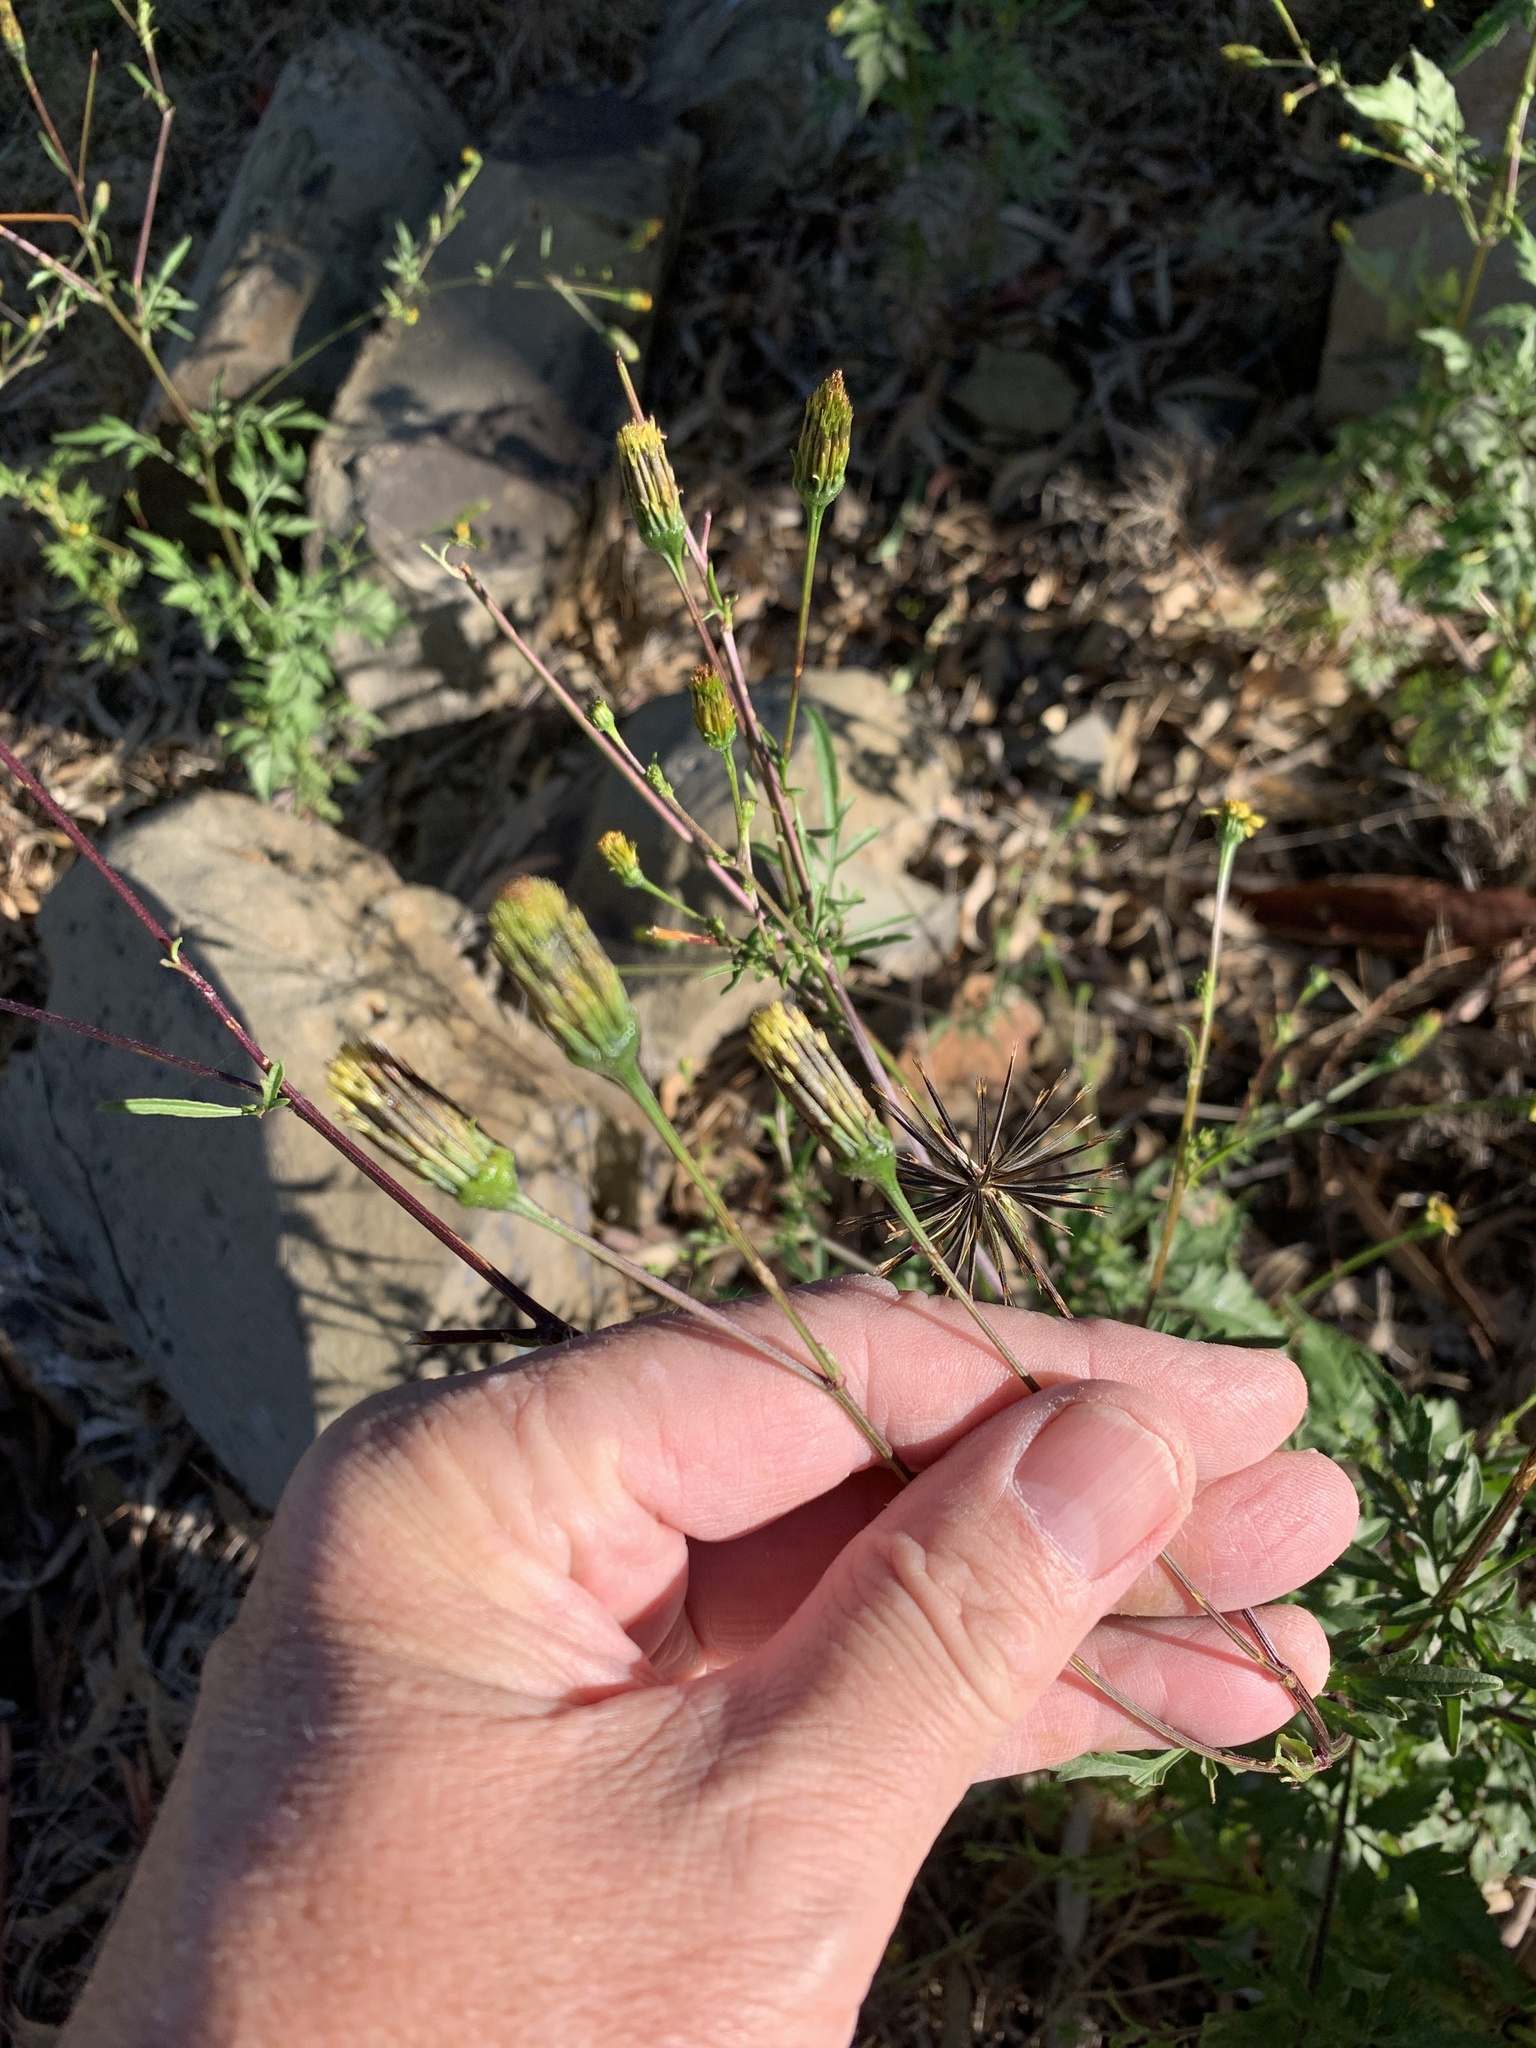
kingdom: Plantae
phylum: Tracheophyta
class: Magnoliopsida
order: Asterales
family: Asteraceae
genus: Bidens
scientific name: Bidens pilosa
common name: Black-jack
